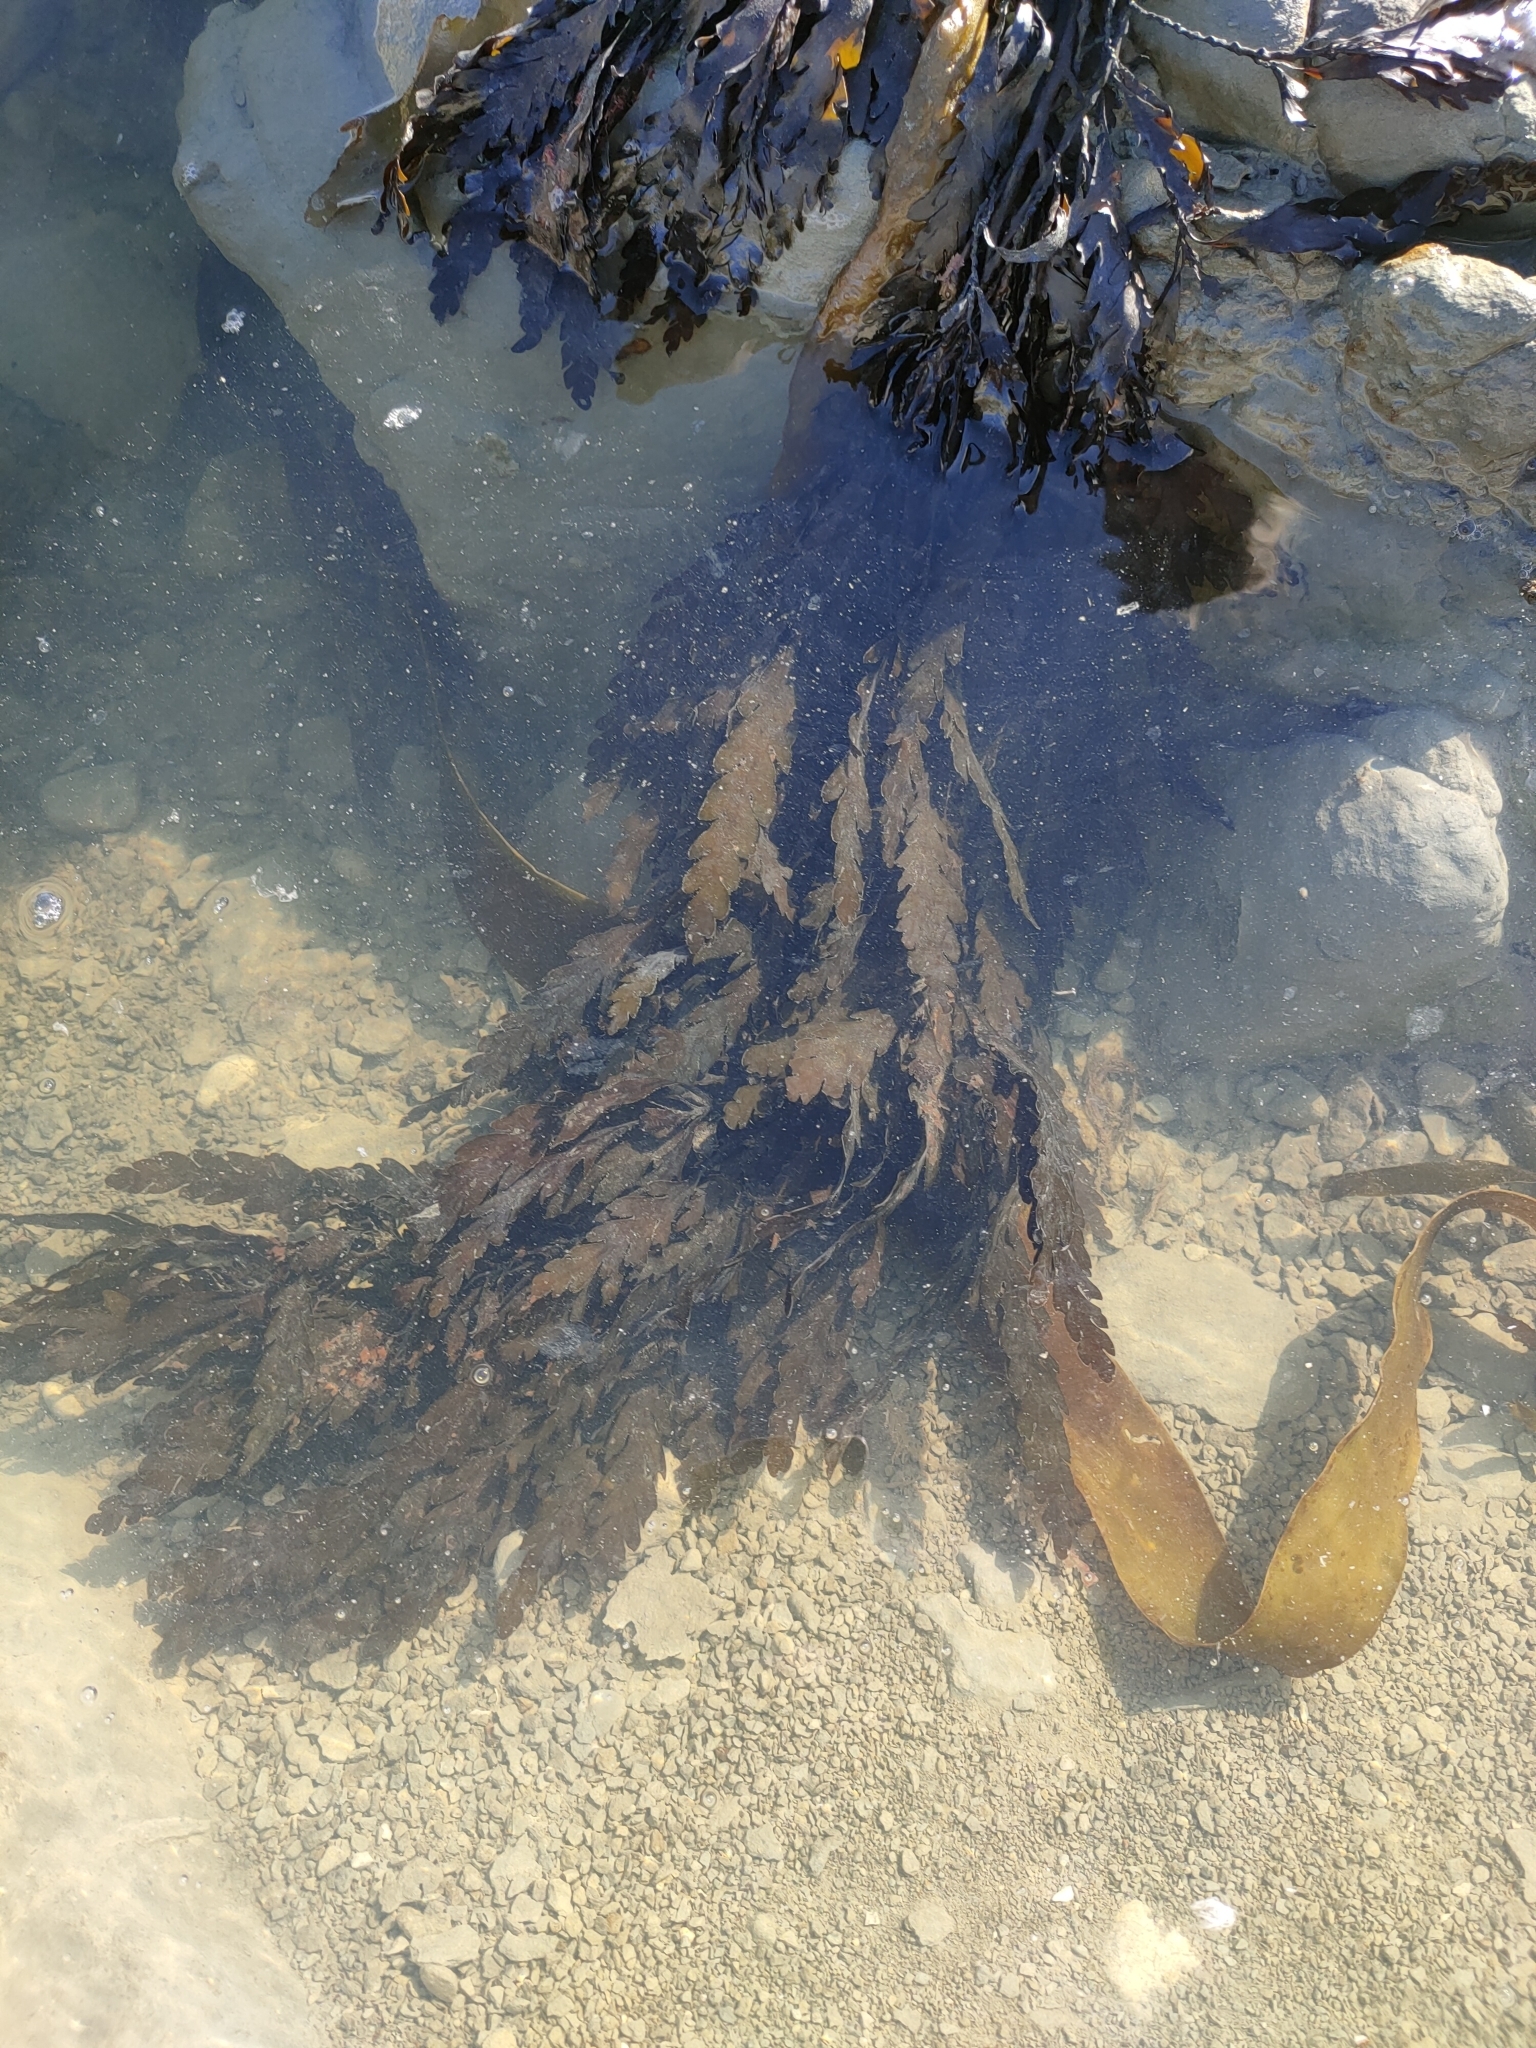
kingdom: Chromista
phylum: Ochrophyta
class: Phaeophyceae
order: Fucales
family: Sargassaceae
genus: Landsburgia
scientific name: Landsburgia quercifolia
